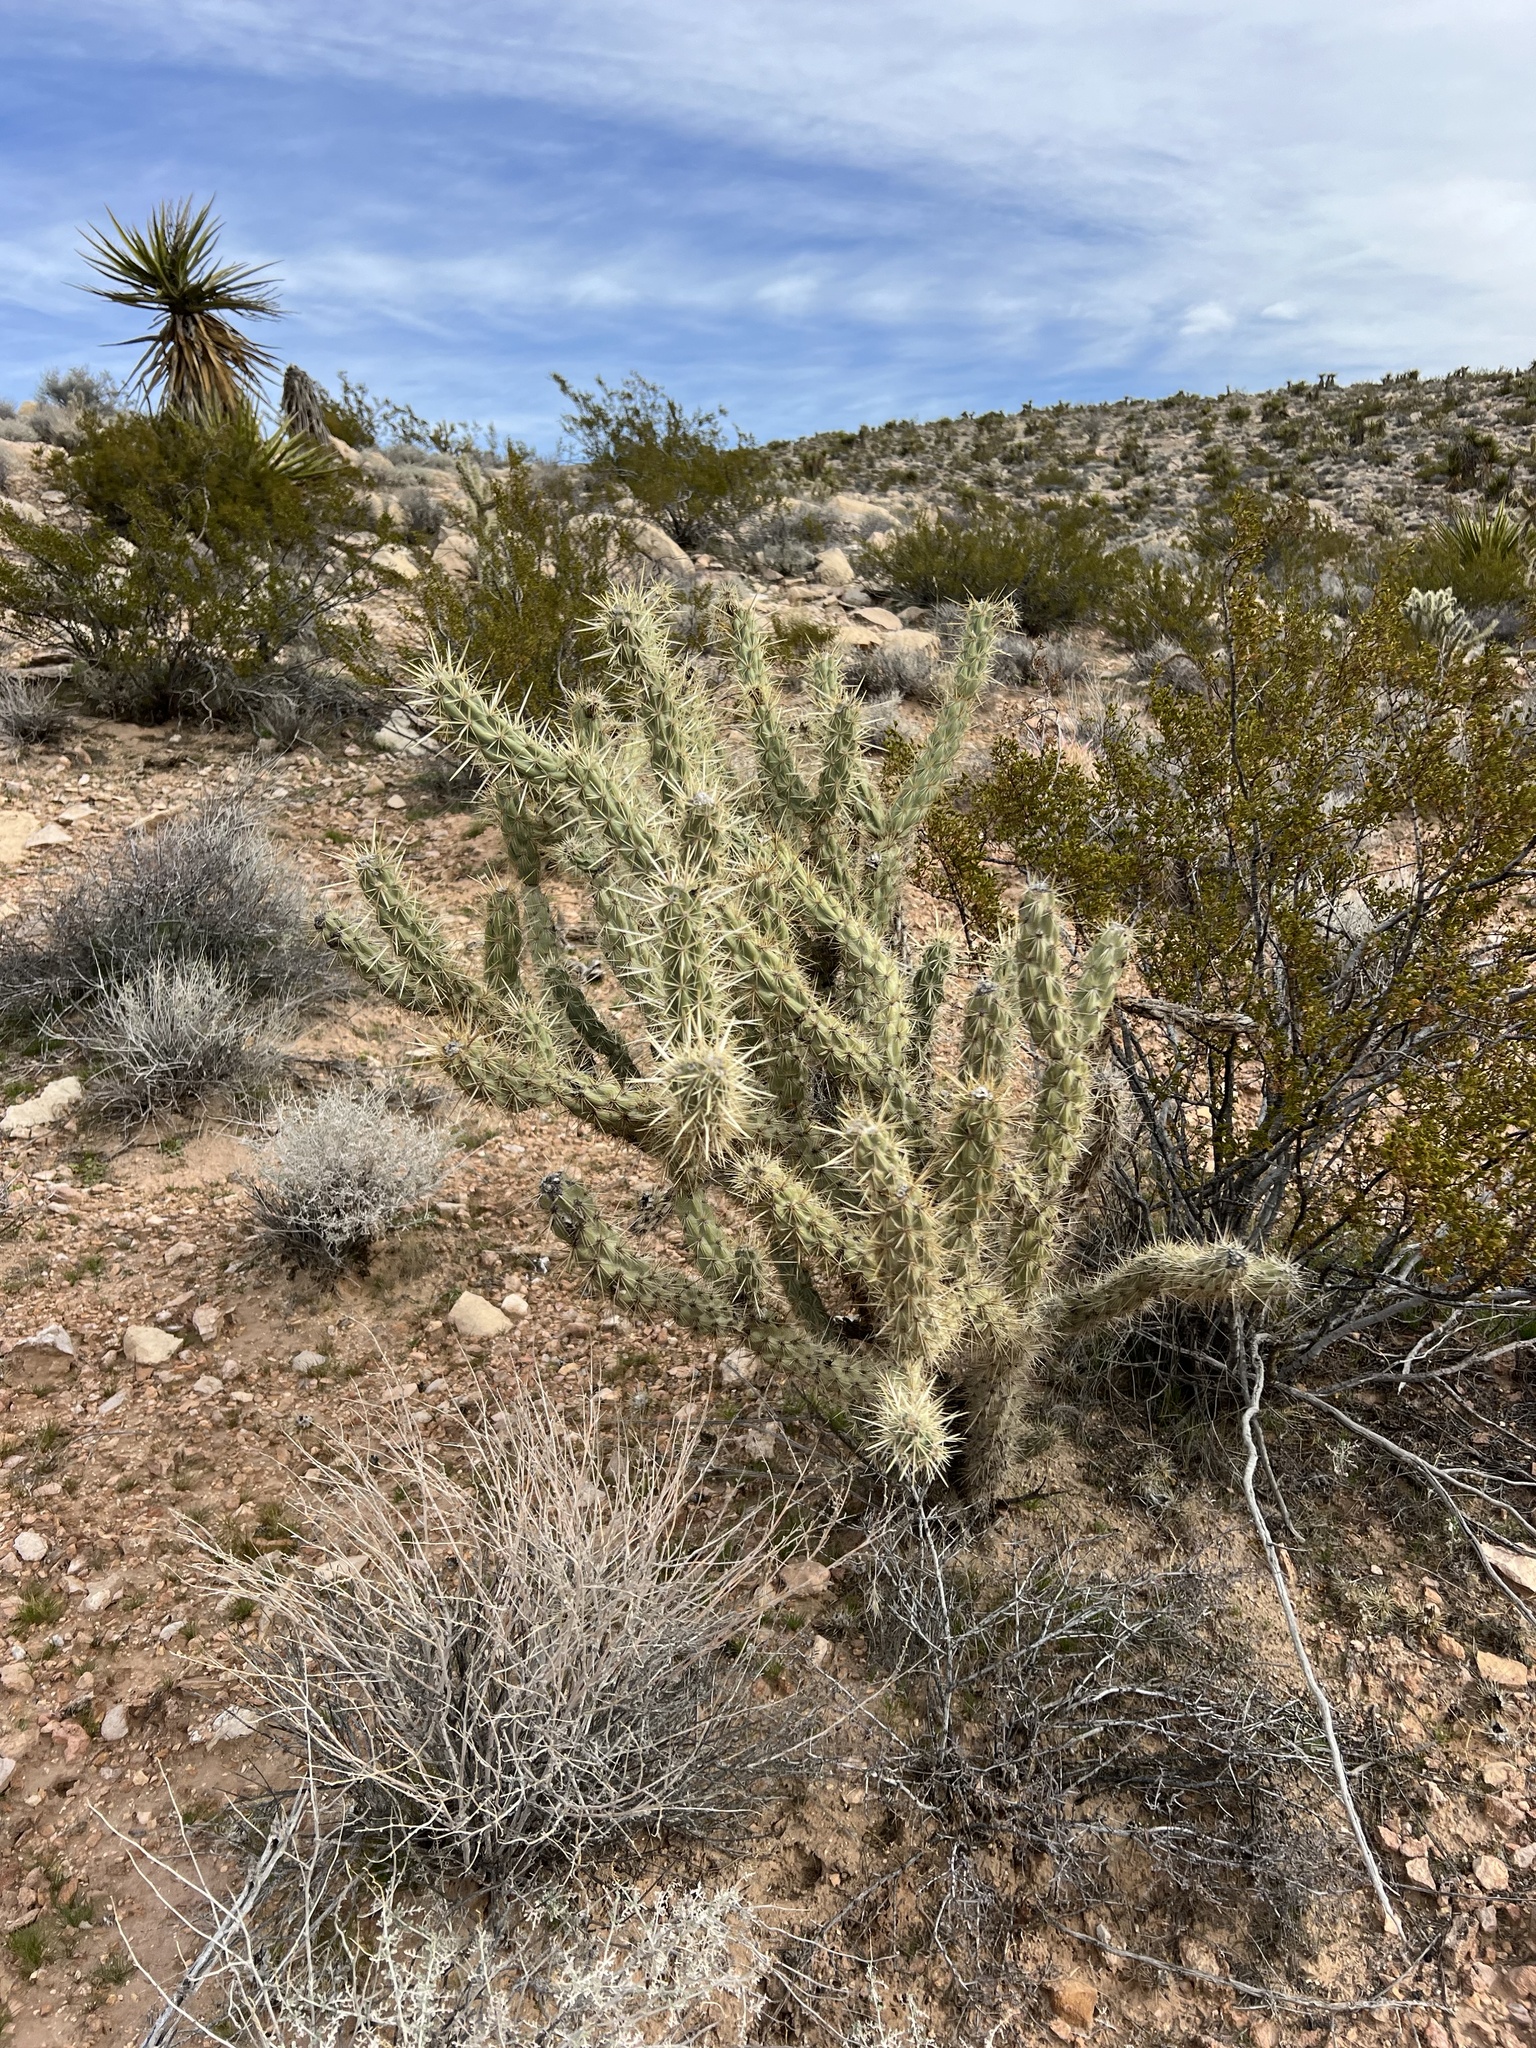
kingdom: Plantae
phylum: Tracheophyta
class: Magnoliopsida
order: Caryophyllales
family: Cactaceae
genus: Cylindropuntia
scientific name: Cylindropuntia acanthocarpa
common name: Buckhorn cholla
